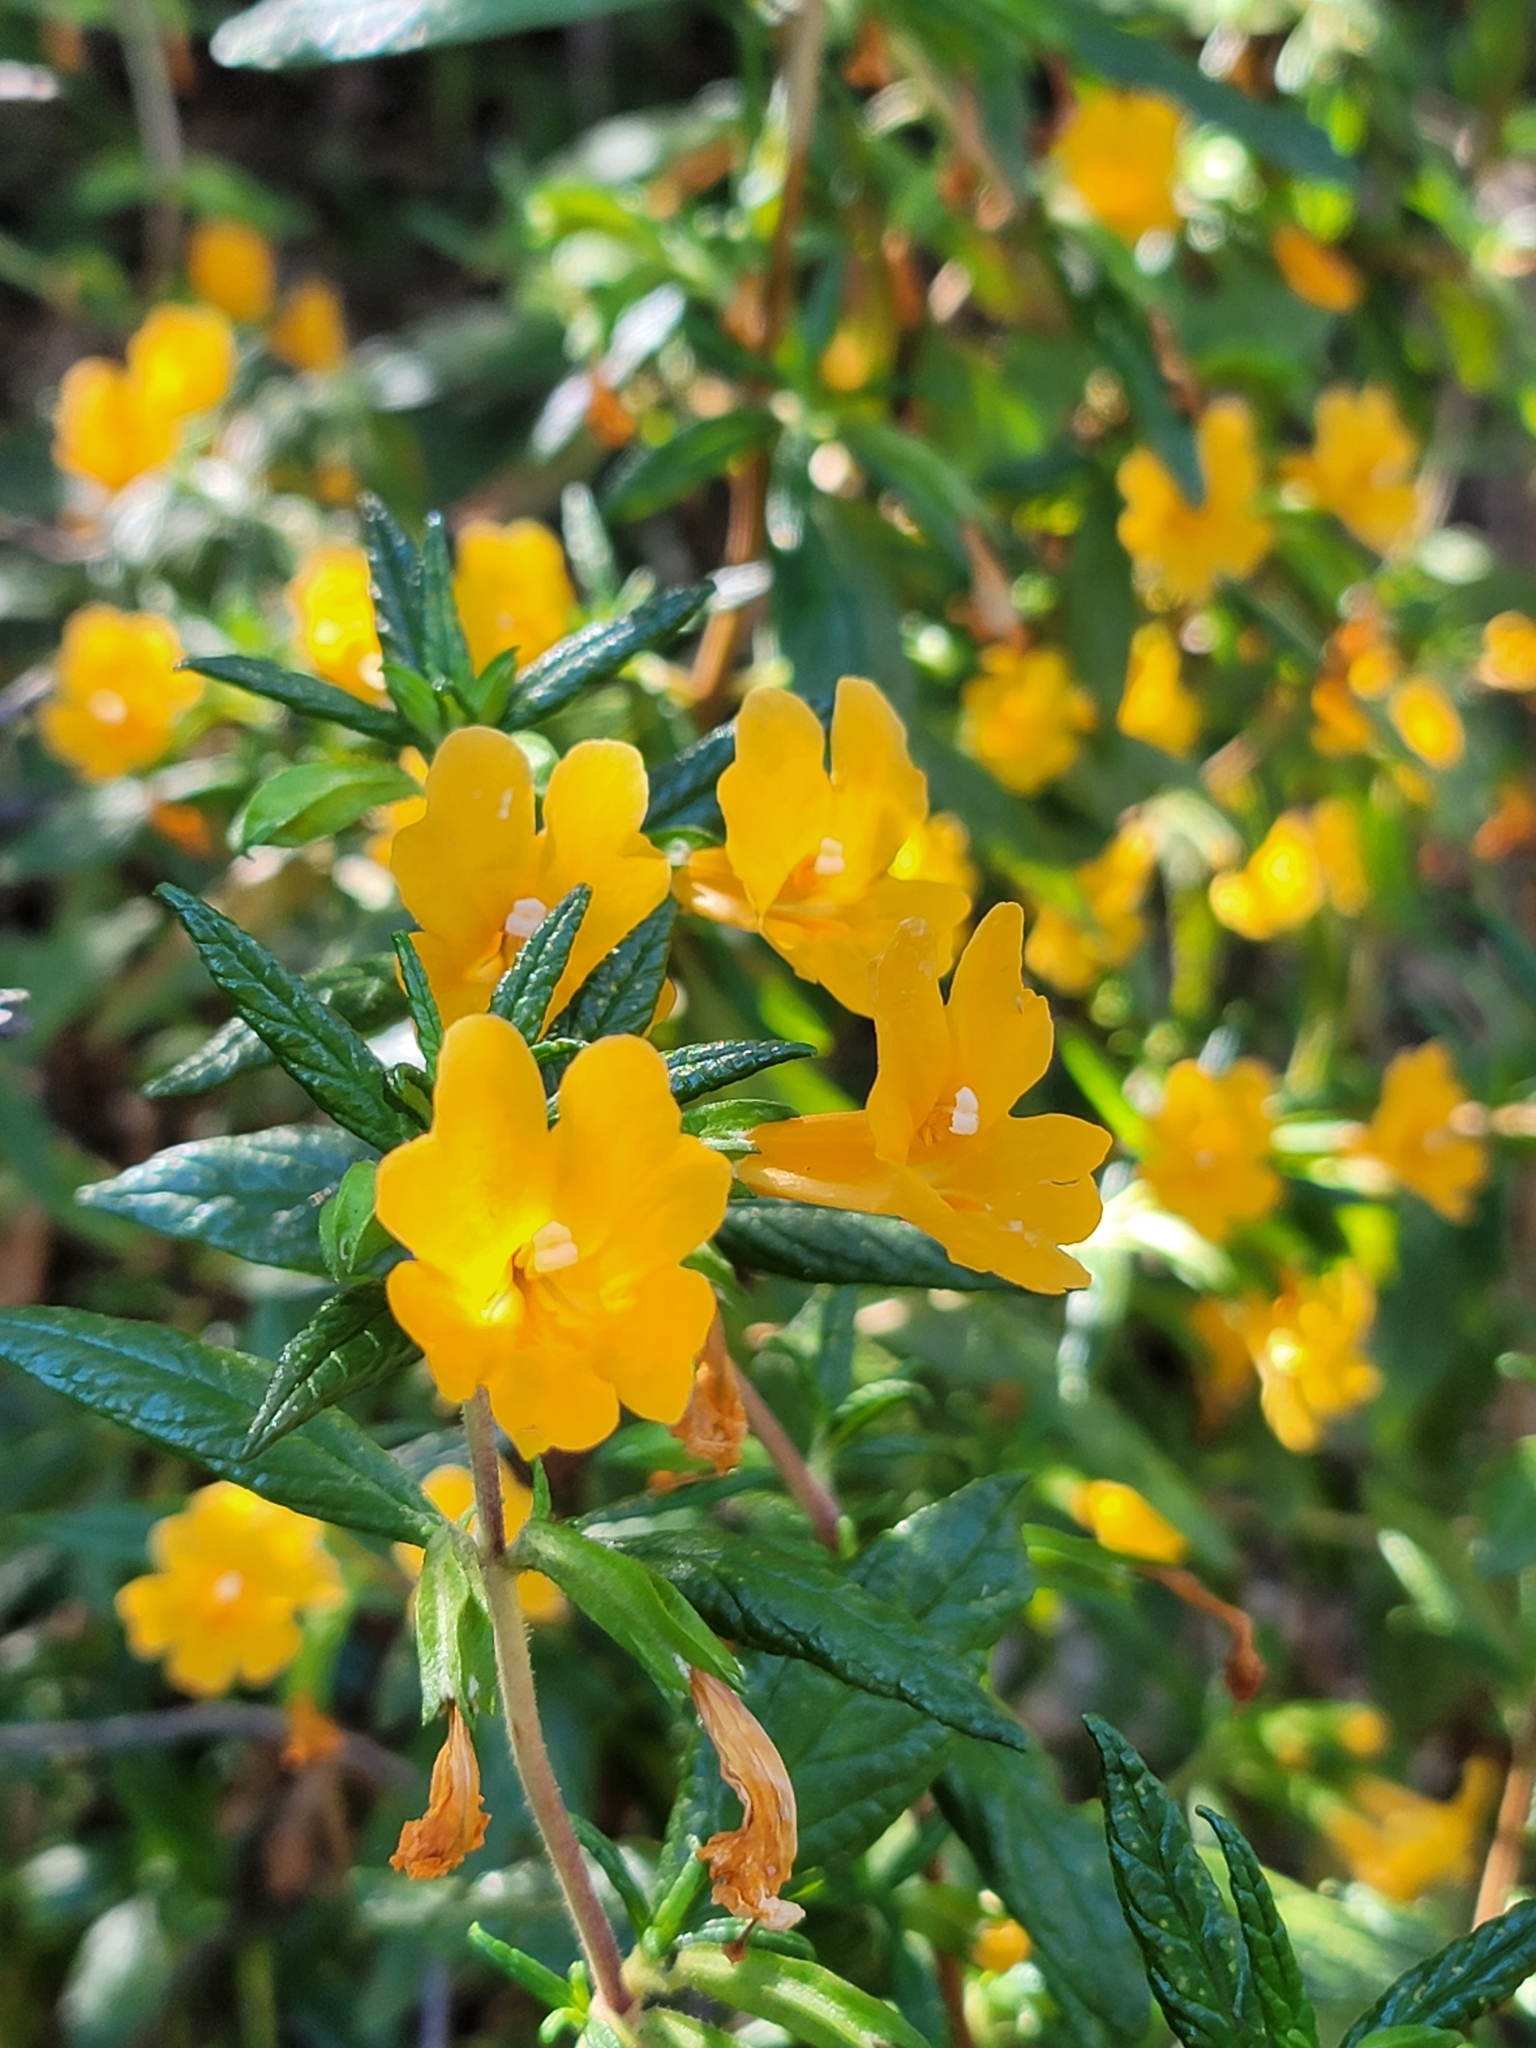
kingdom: Plantae
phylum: Tracheophyta
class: Magnoliopsida
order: Lamiales
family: Phrymaceae
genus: Diplacus
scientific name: Diplacus aurantiacus
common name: Bush monkey-flower
